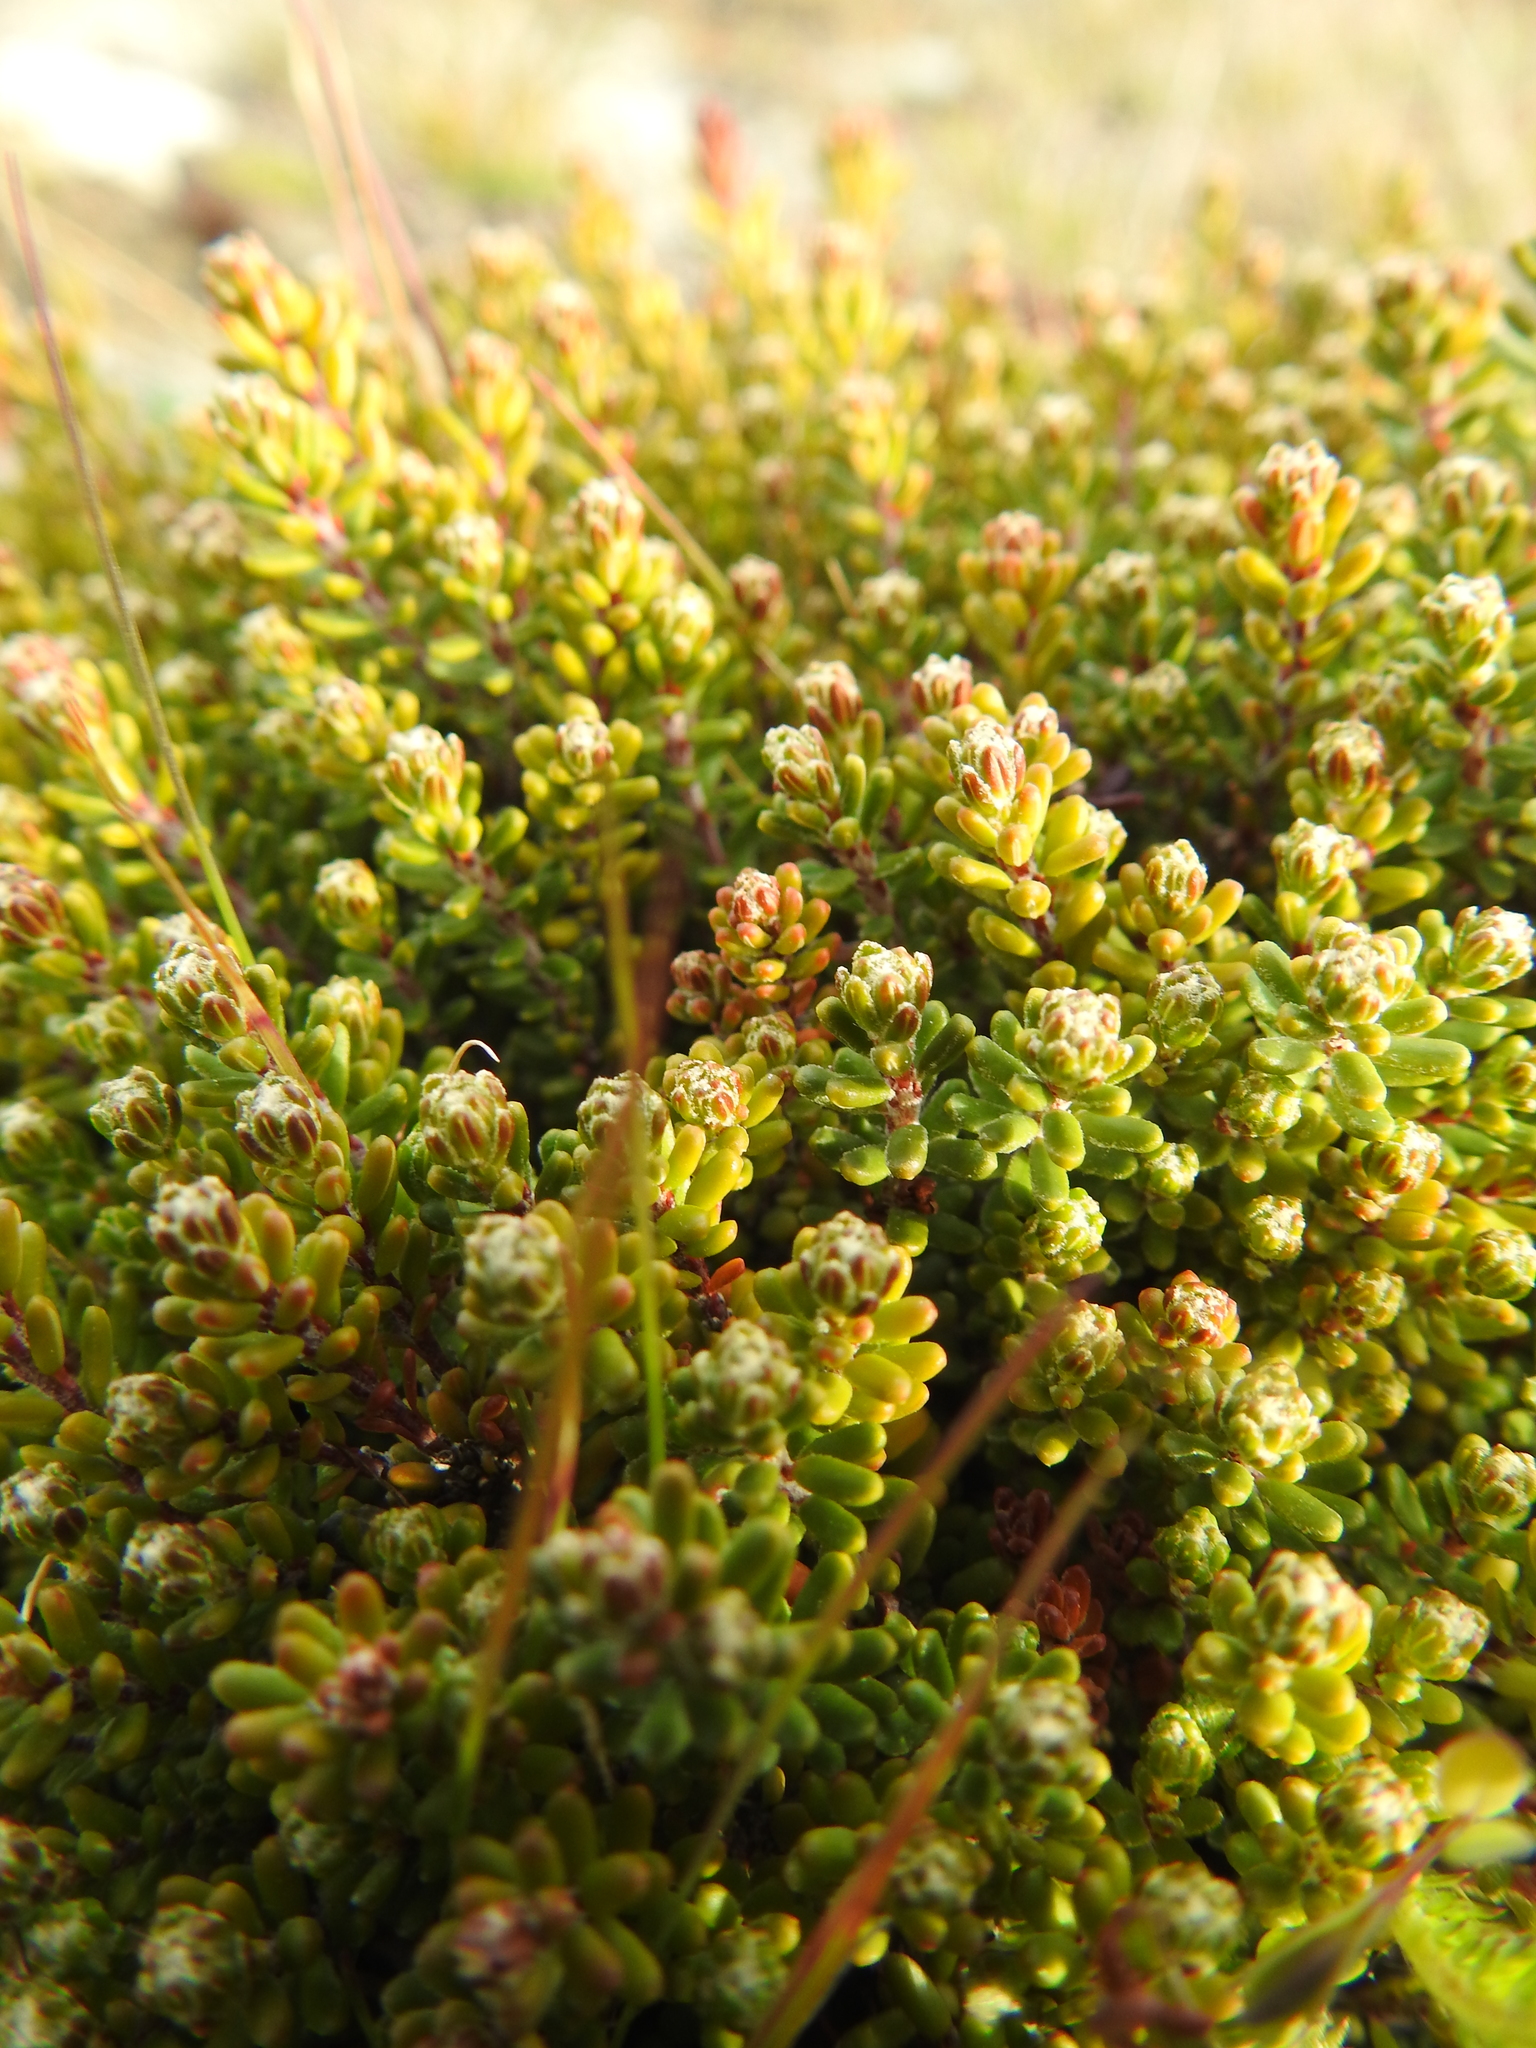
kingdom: Plantae
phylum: Tracheophyta
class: Magnoliopsida
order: Ericales
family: Ericaceae
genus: Empetrum
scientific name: Empetrum rubrum
